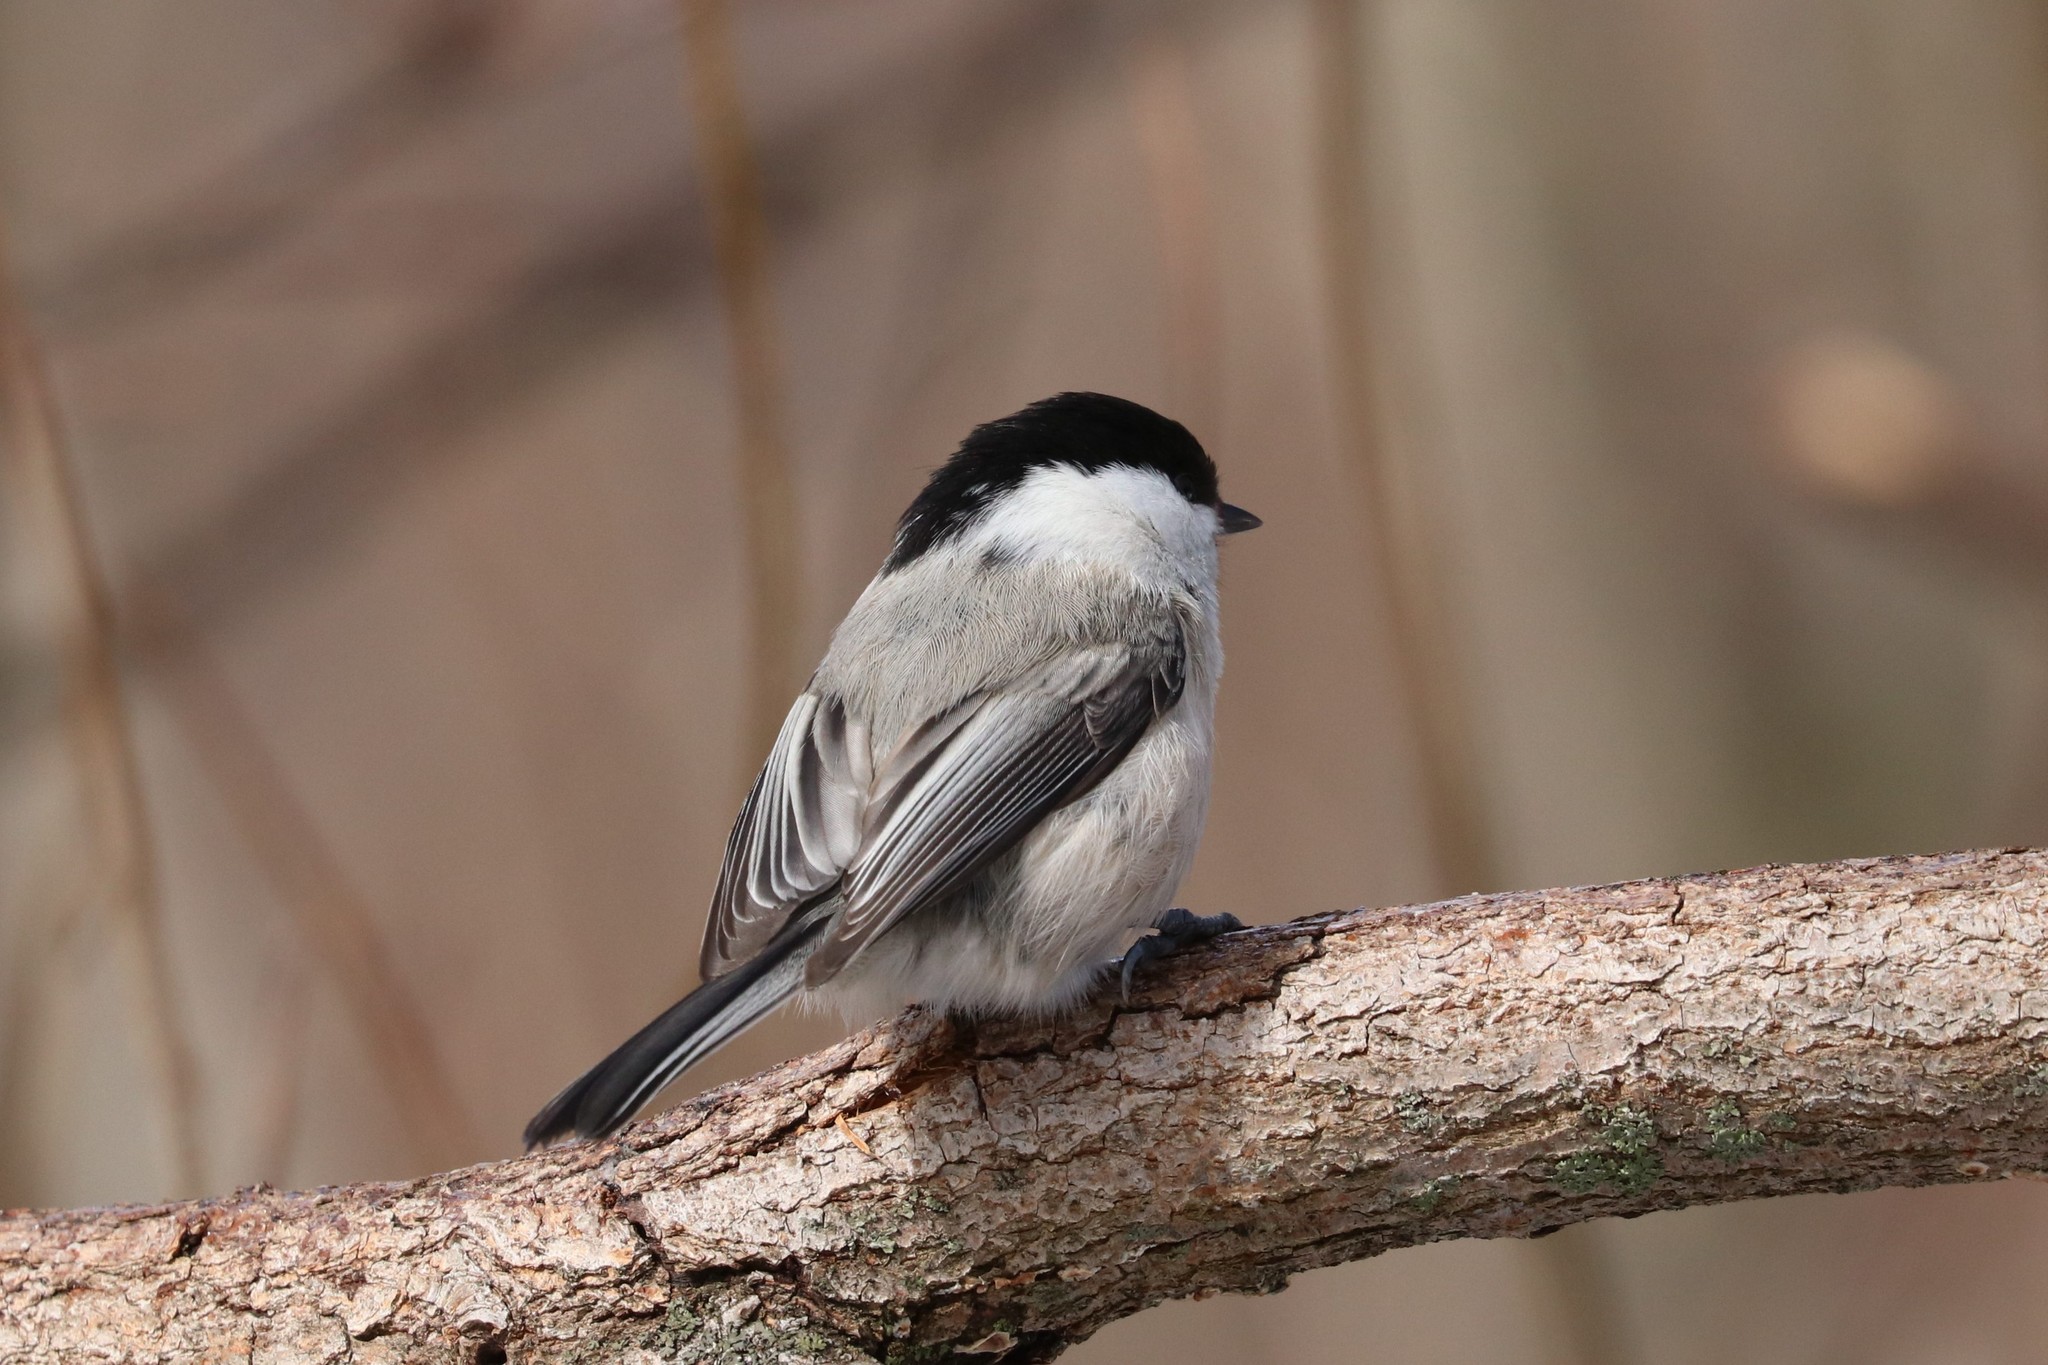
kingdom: Animalia
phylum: Chordata
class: Aves
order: Passeriformes
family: Paridae
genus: Poecile
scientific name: Poecile montanus
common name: Willow tit
